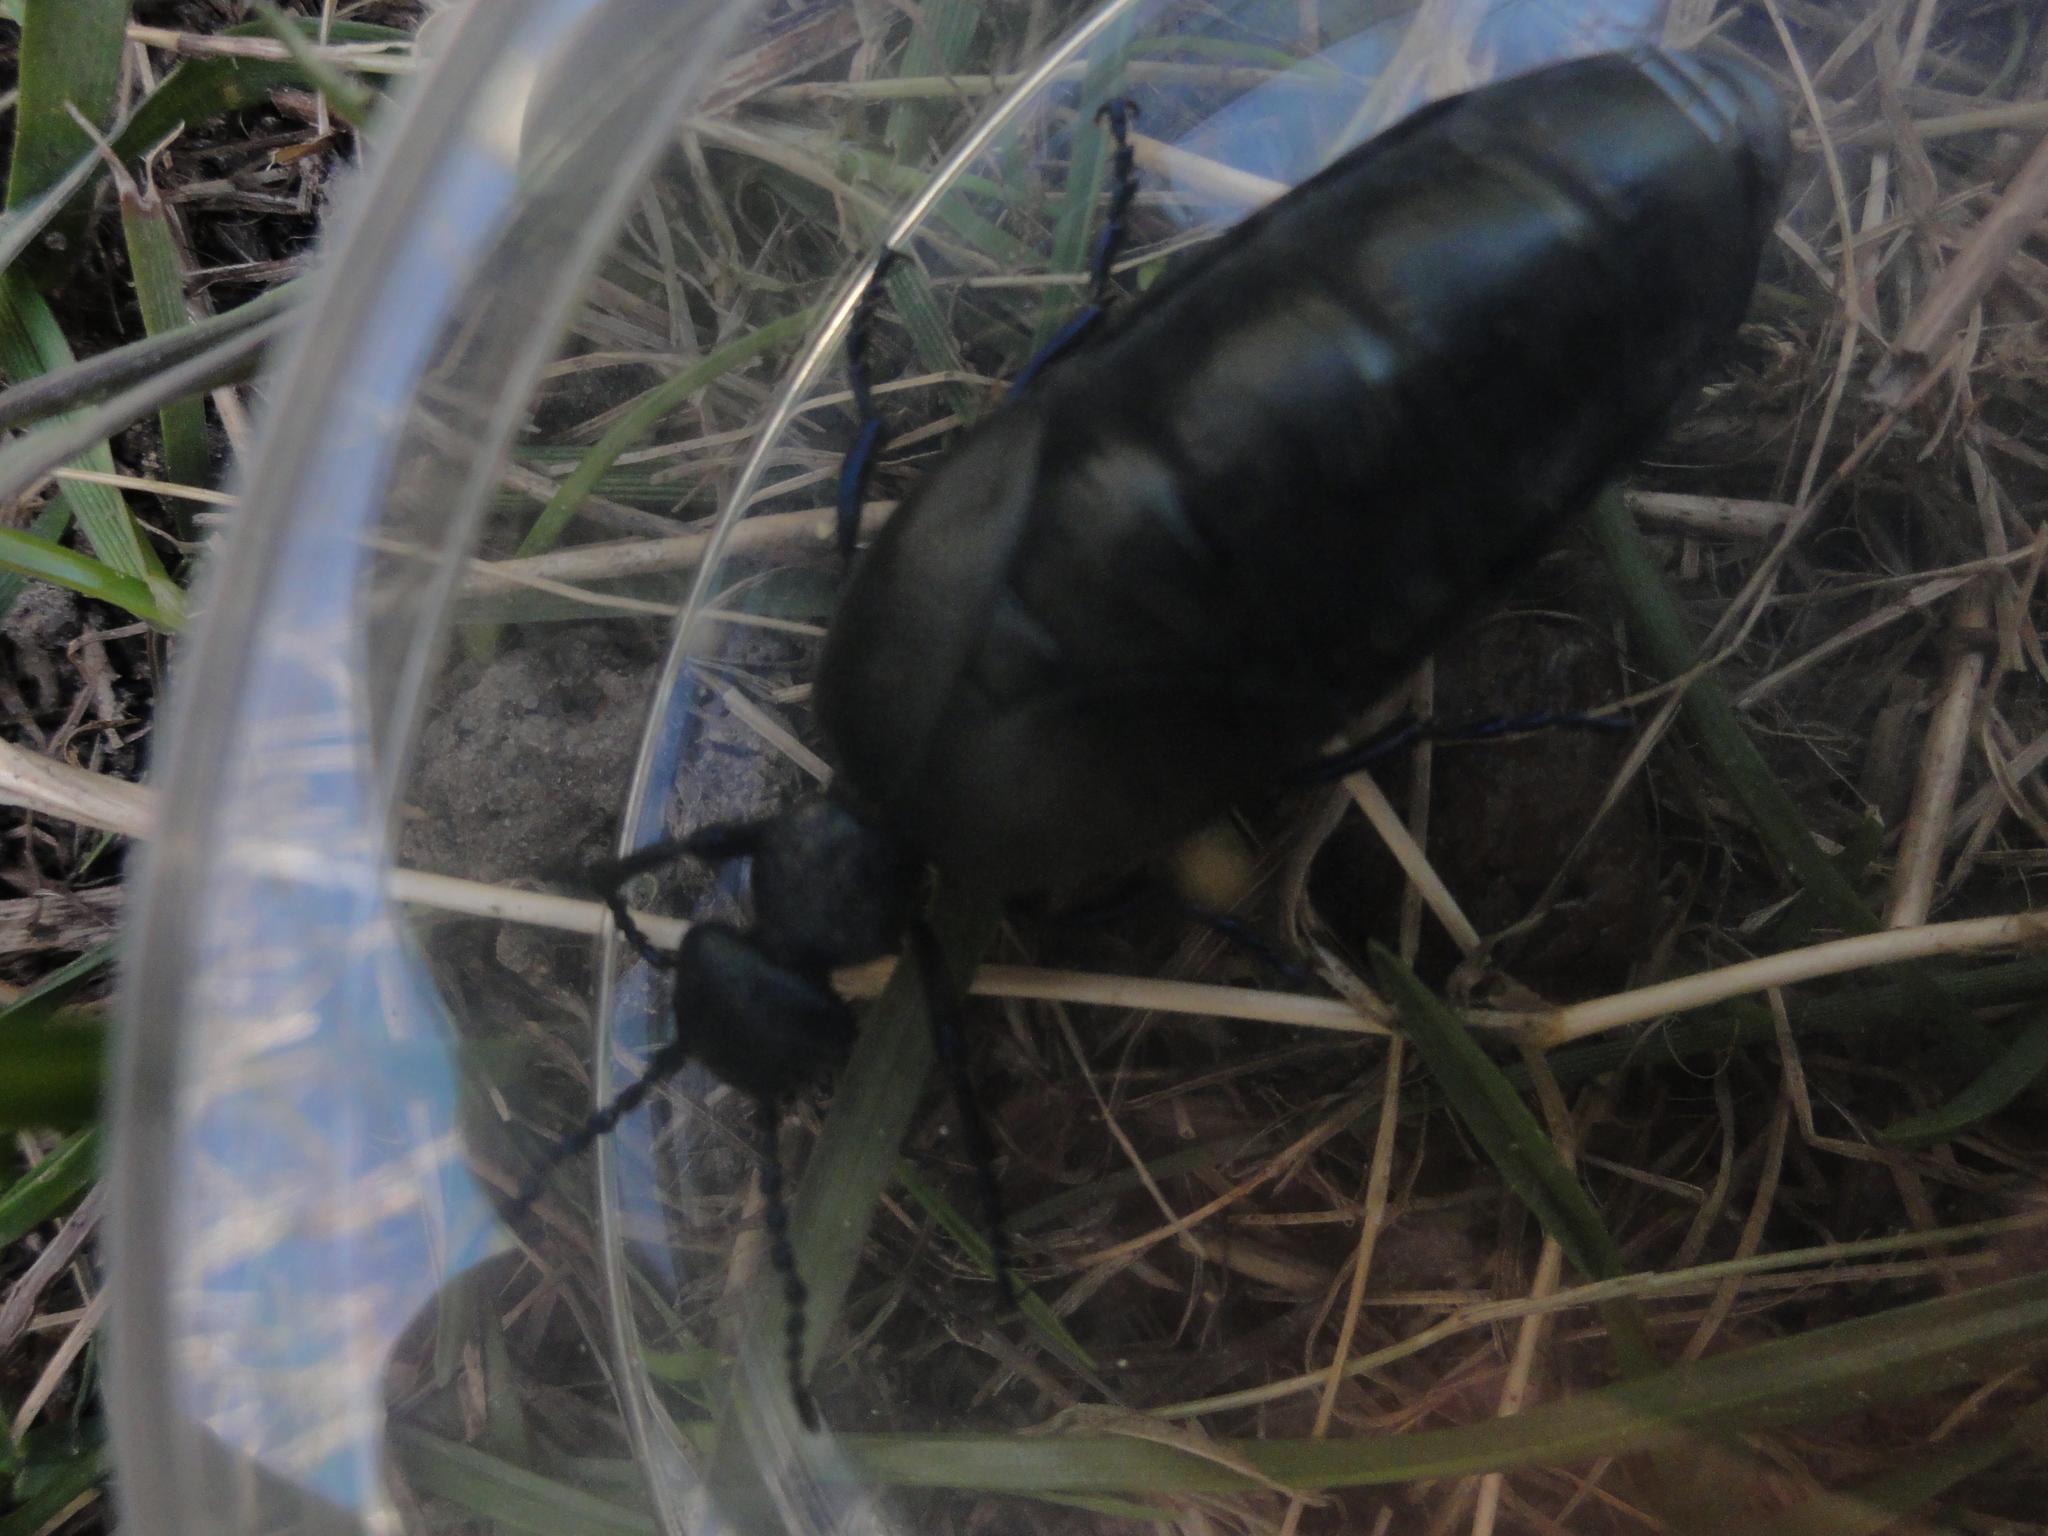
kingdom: Animalia
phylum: Arthropoda
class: Insecta
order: Coleoptera
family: Meloidae
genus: Meloe
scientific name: Meloe proscarabaeus
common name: Black oil-beetle
